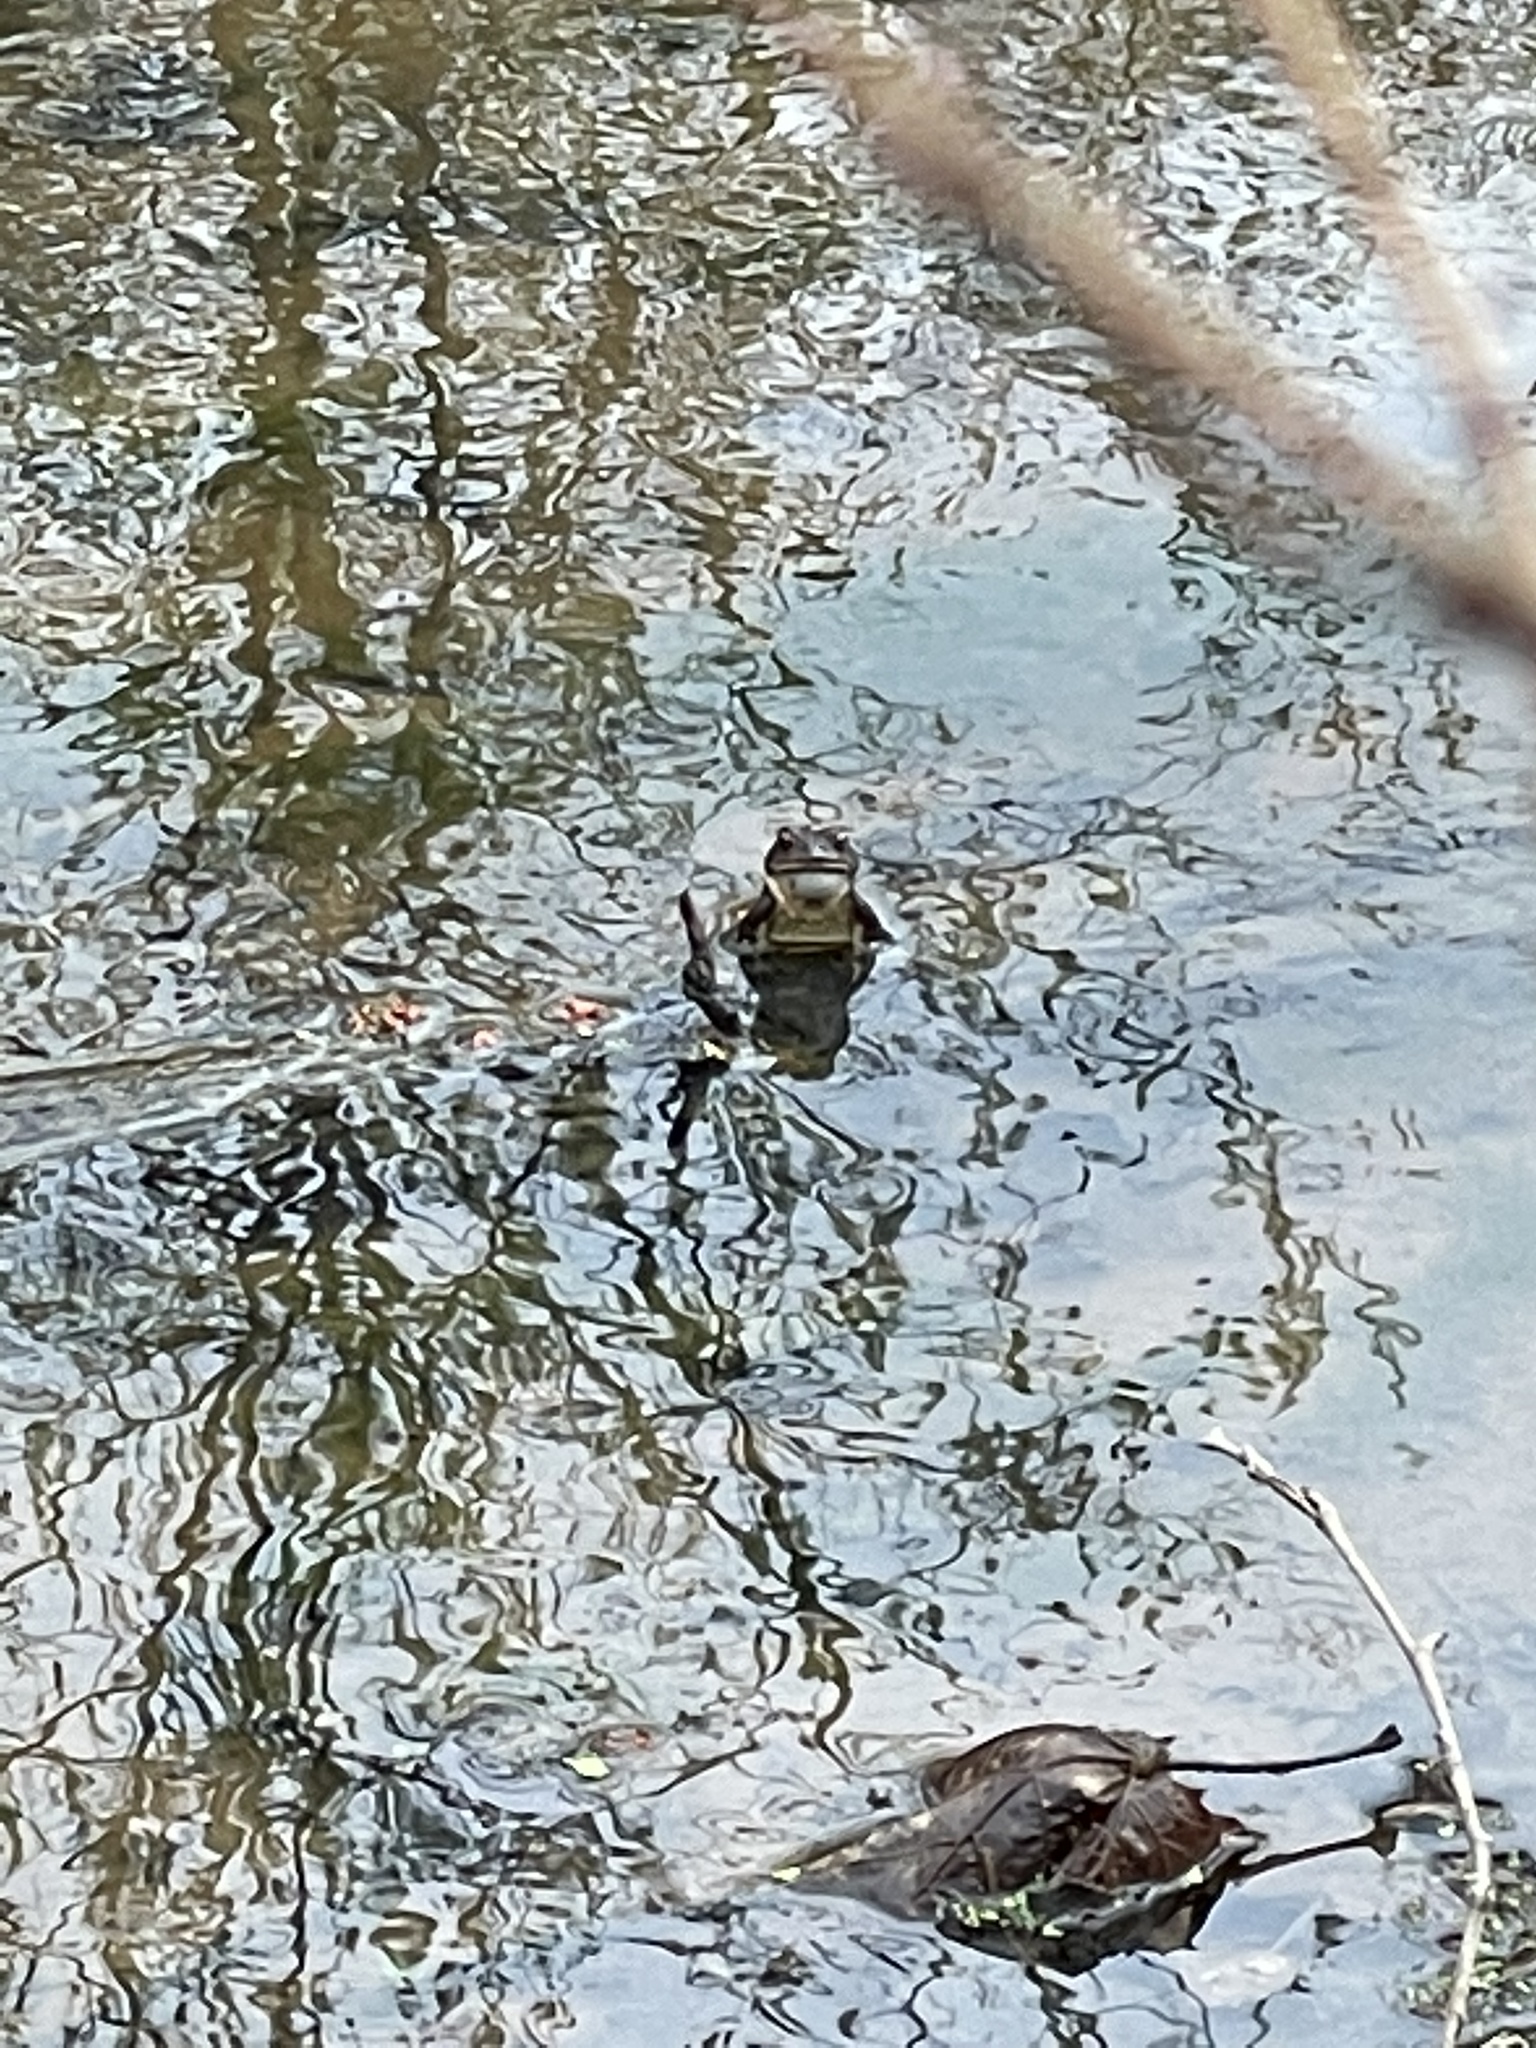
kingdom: Animalia
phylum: Chordata
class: Amphibia
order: Anura
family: Bufonidae
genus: Anaxyrus
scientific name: Anaxyrus americanus
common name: American toad
